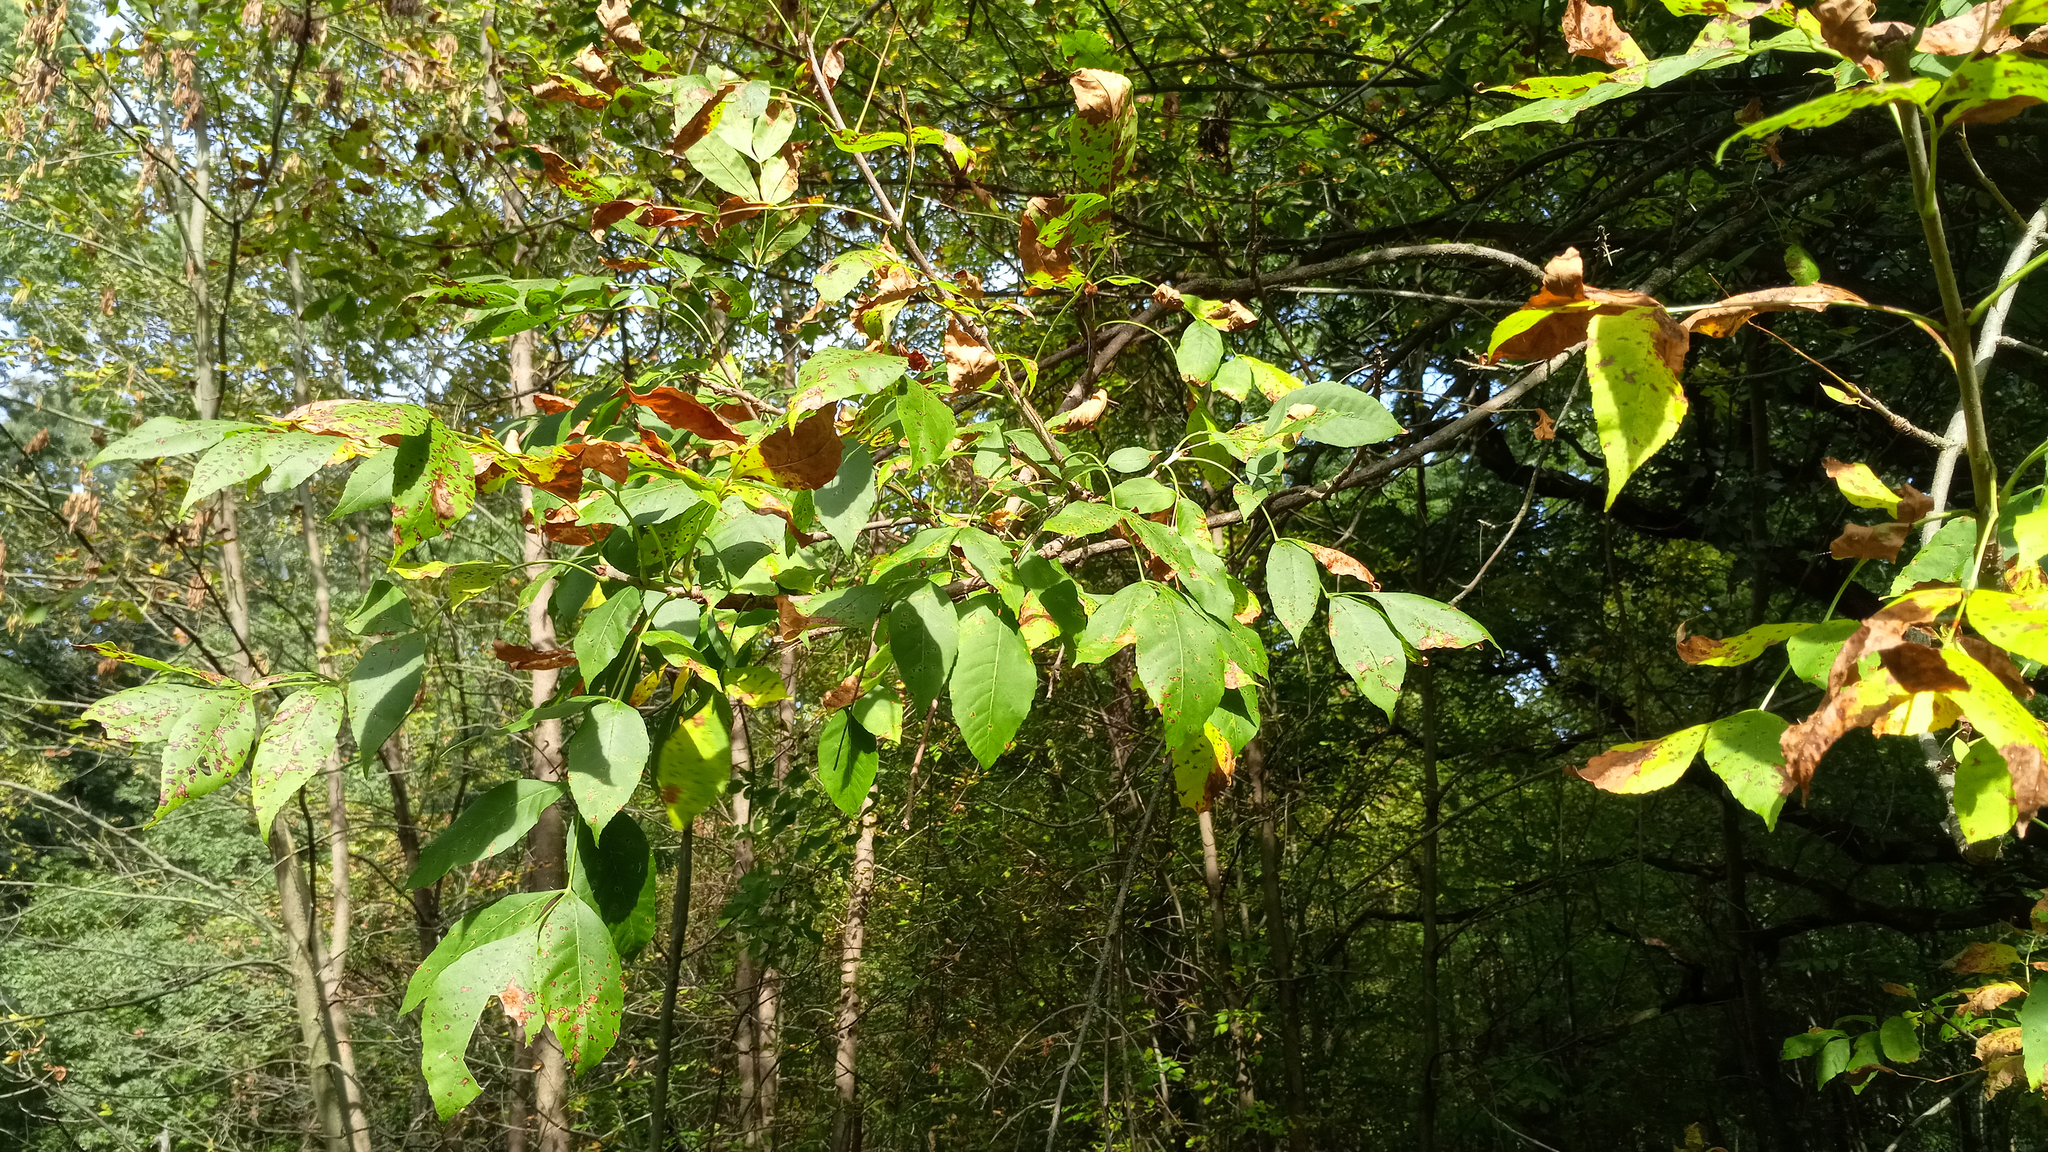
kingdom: Plantae
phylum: Tracheophyta
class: Magnoliopsida
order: Lamiales
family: Oleaceae
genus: Fraxinus
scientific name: Fraxinus pennsylvanica
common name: Green ash
